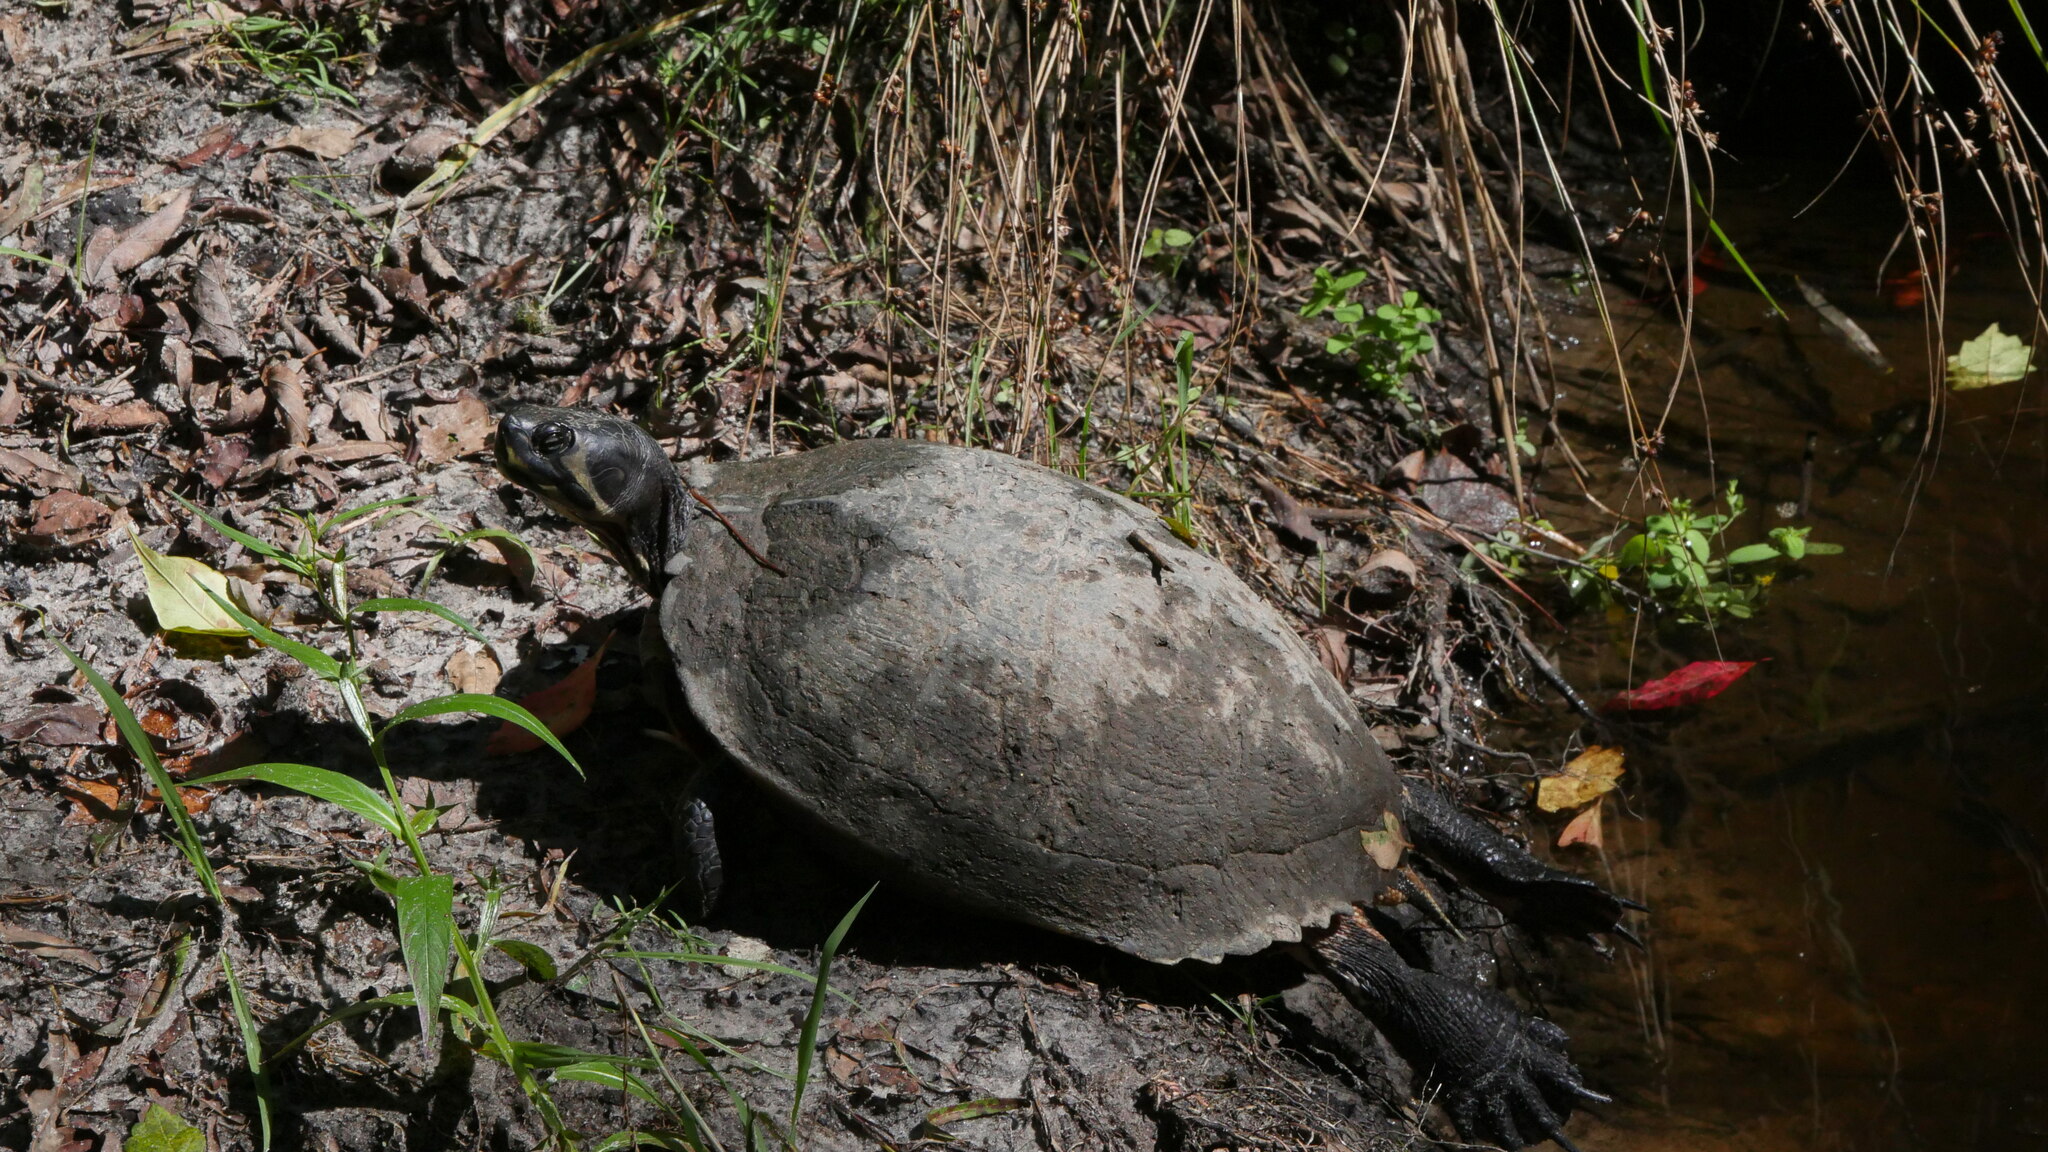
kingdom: Animalia
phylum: Chordata
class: Testudines
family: Emydidae
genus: Trachemys
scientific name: Trachemys scripta
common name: Slider
